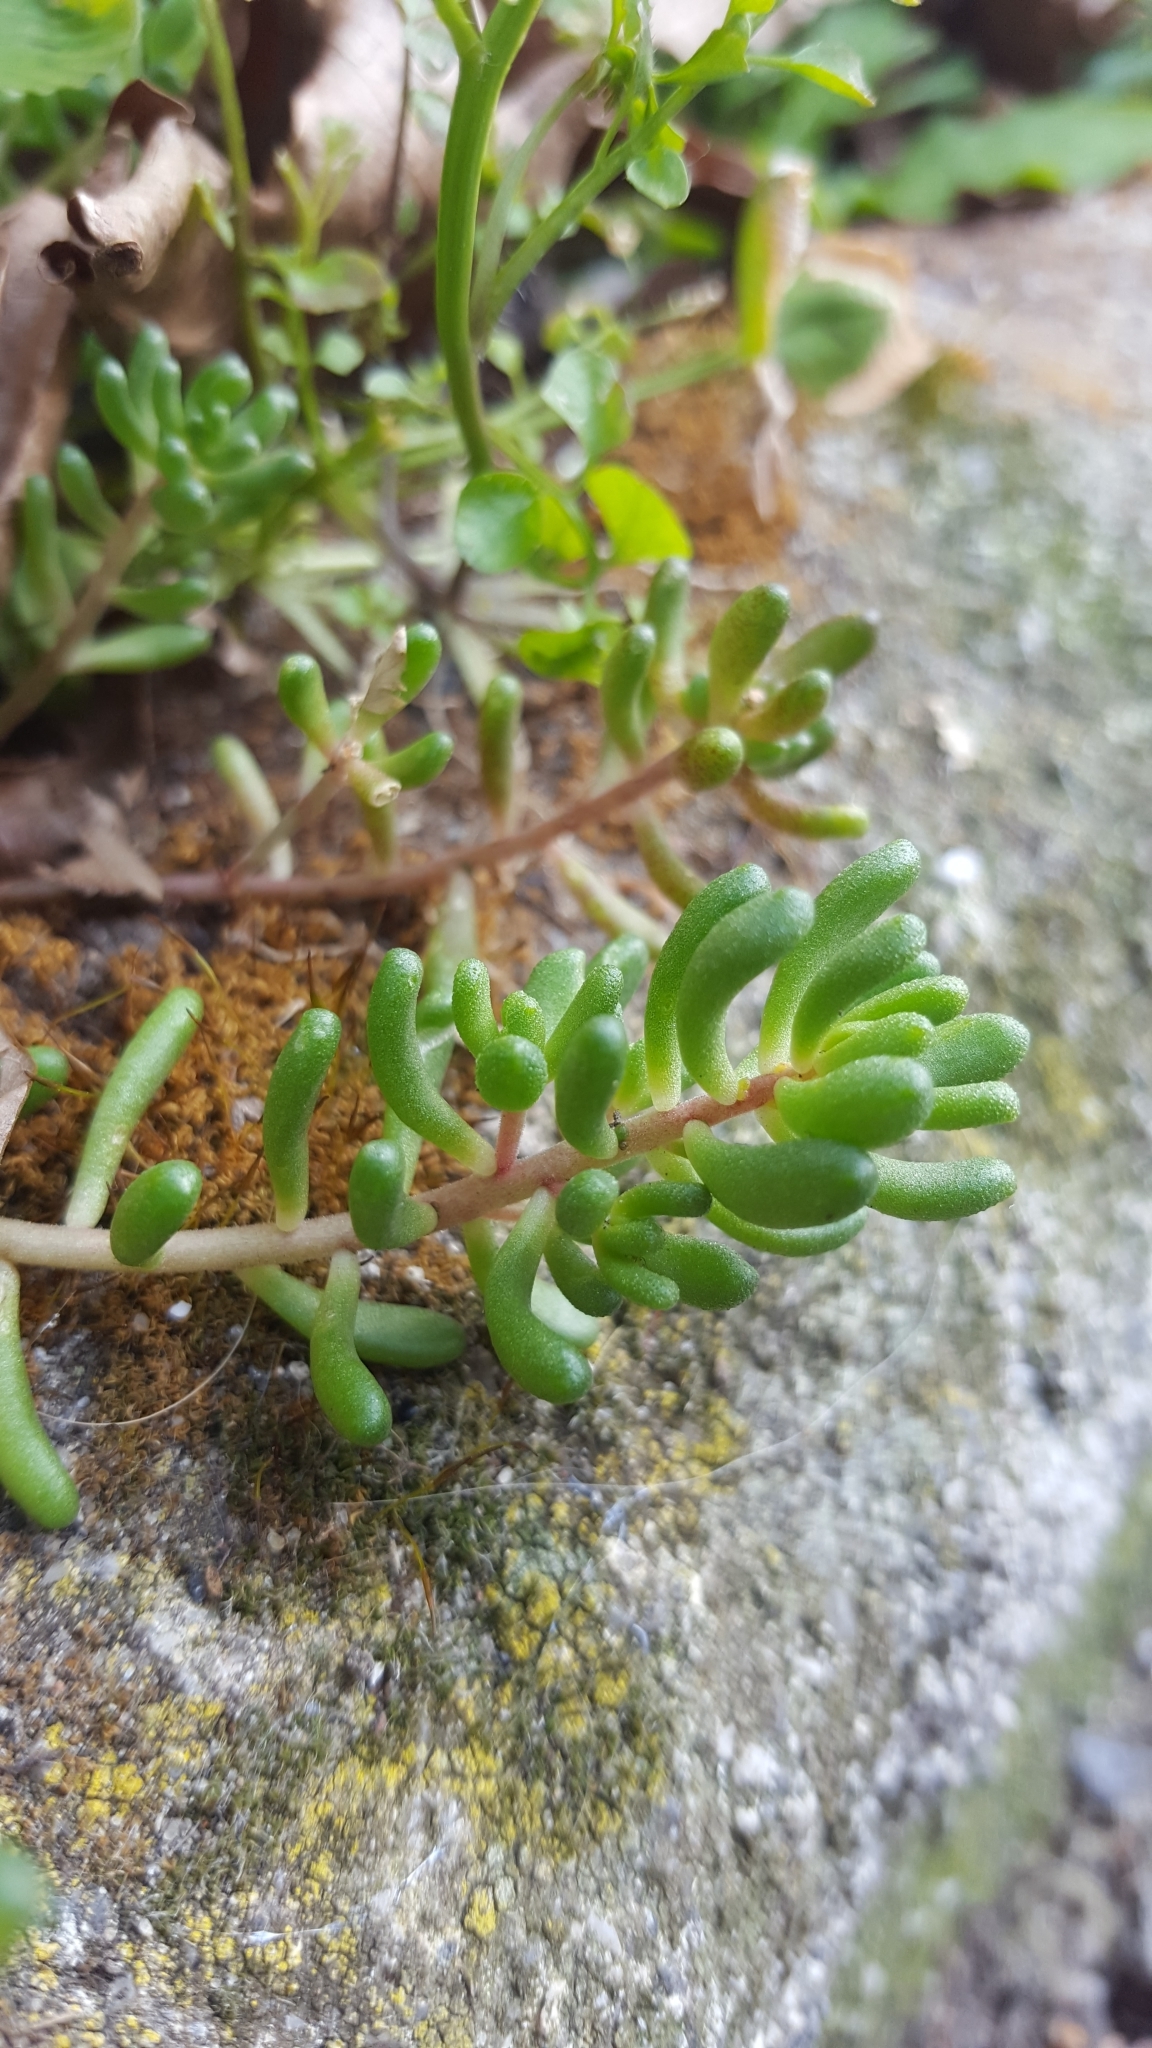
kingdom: Plantae
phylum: Tracheophyta
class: Magnoliopsida
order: Saxifragales
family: Crassulaceae
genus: Sedum
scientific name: Sedum album
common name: White stonecrop
